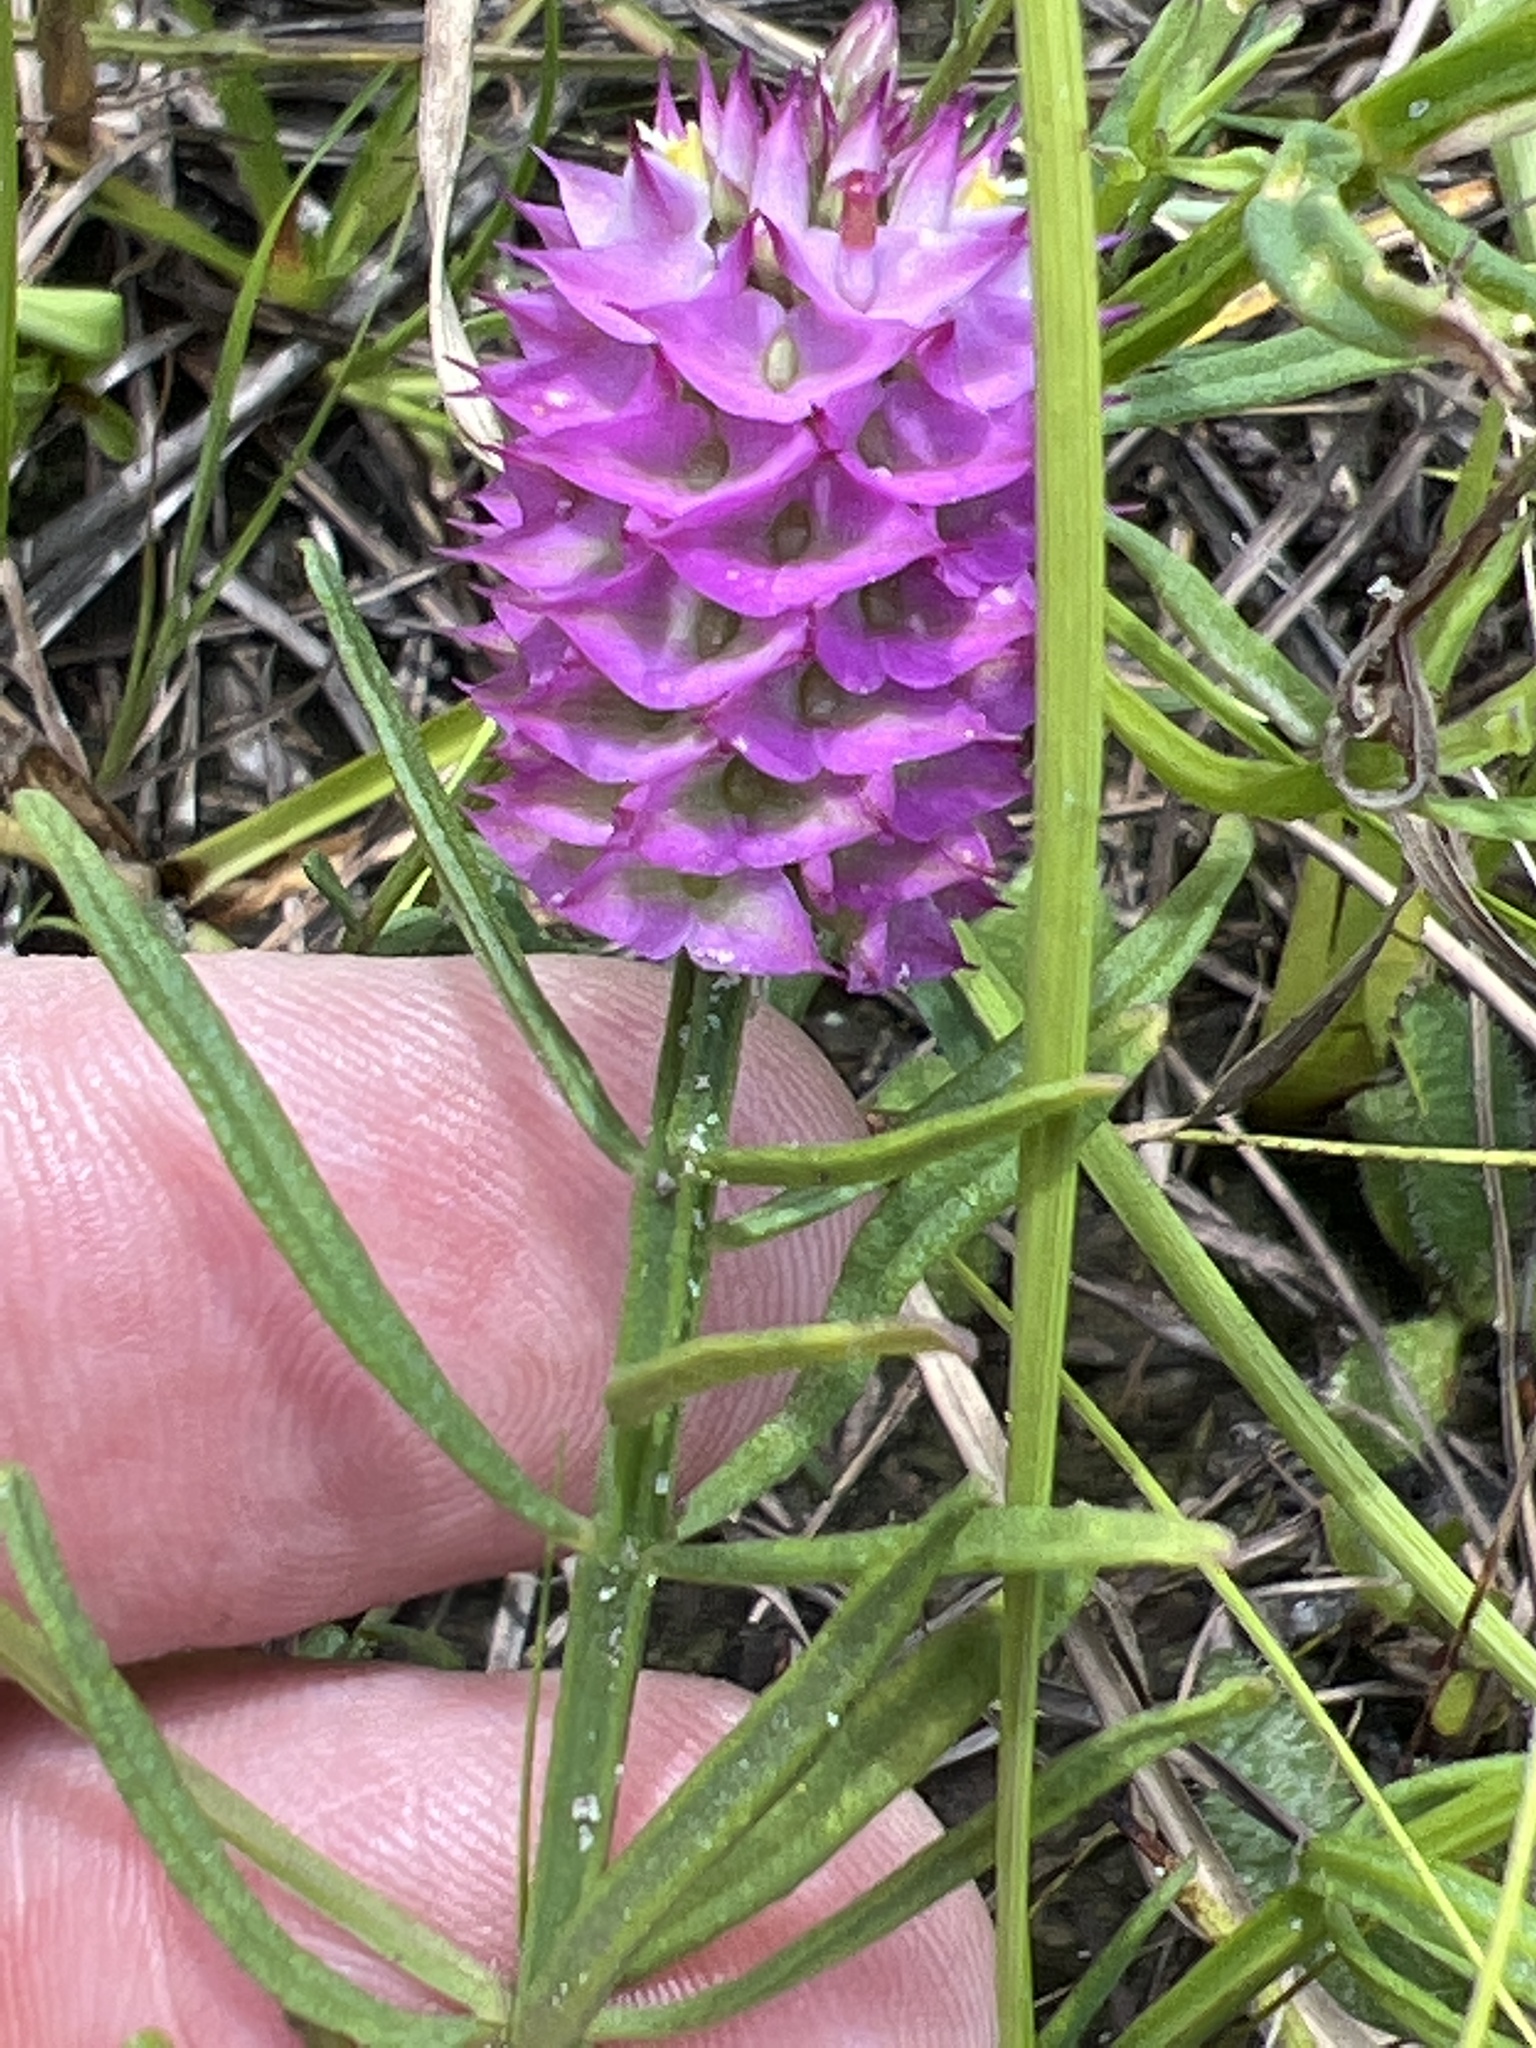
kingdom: Plantae
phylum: Tracheophyta
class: Magnoliopsida
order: Fabales
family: Polygalaceae
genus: Polygala
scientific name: Polygala cruciata
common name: Drumheads
